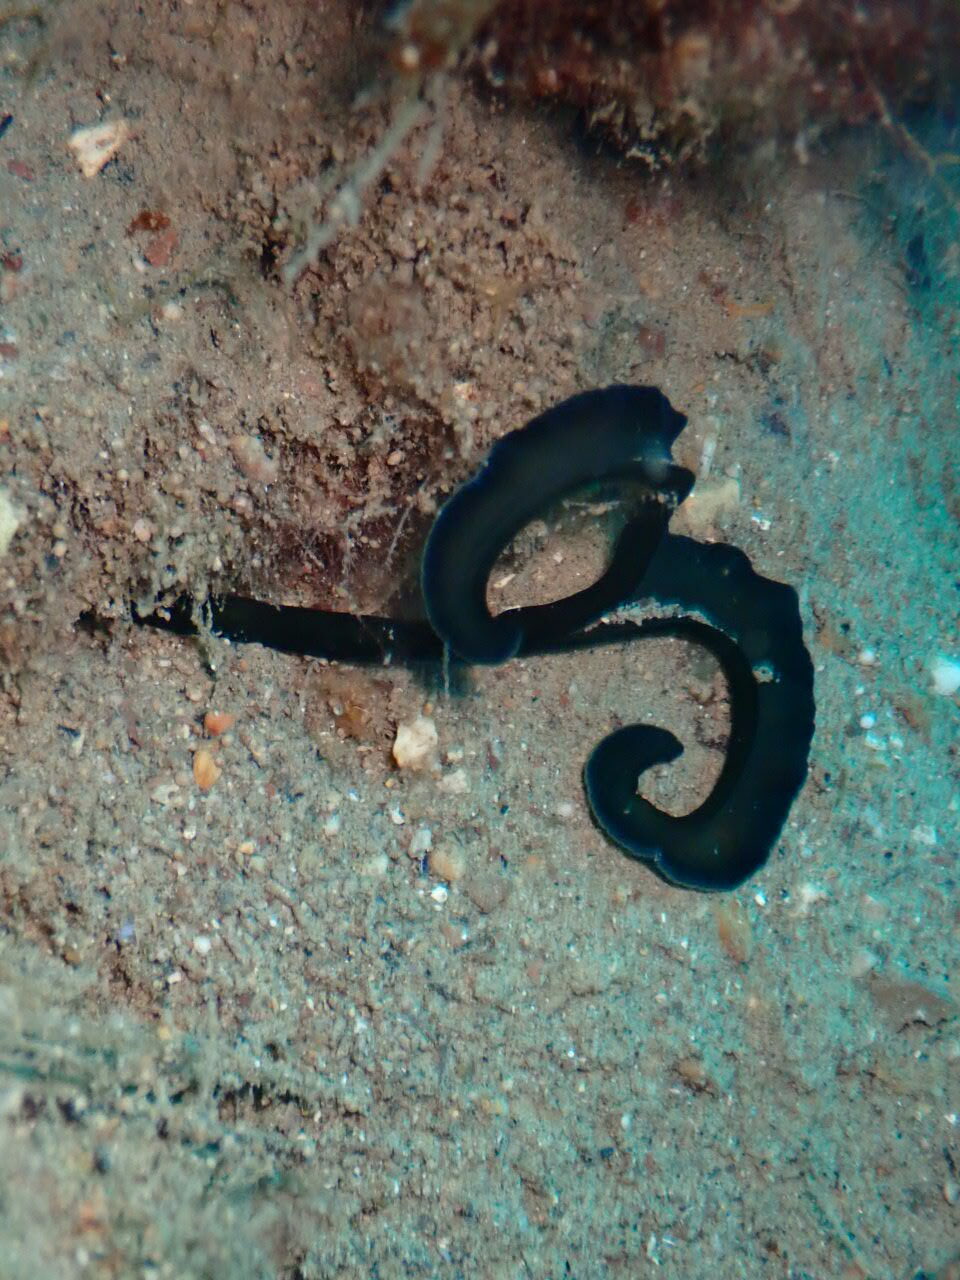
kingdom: Animalia
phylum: Annelida
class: Polychaeta
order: Echiuroidea
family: Bonelliidae
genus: Bonellia
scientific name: Bonellia viridis
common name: Green spoon worm
